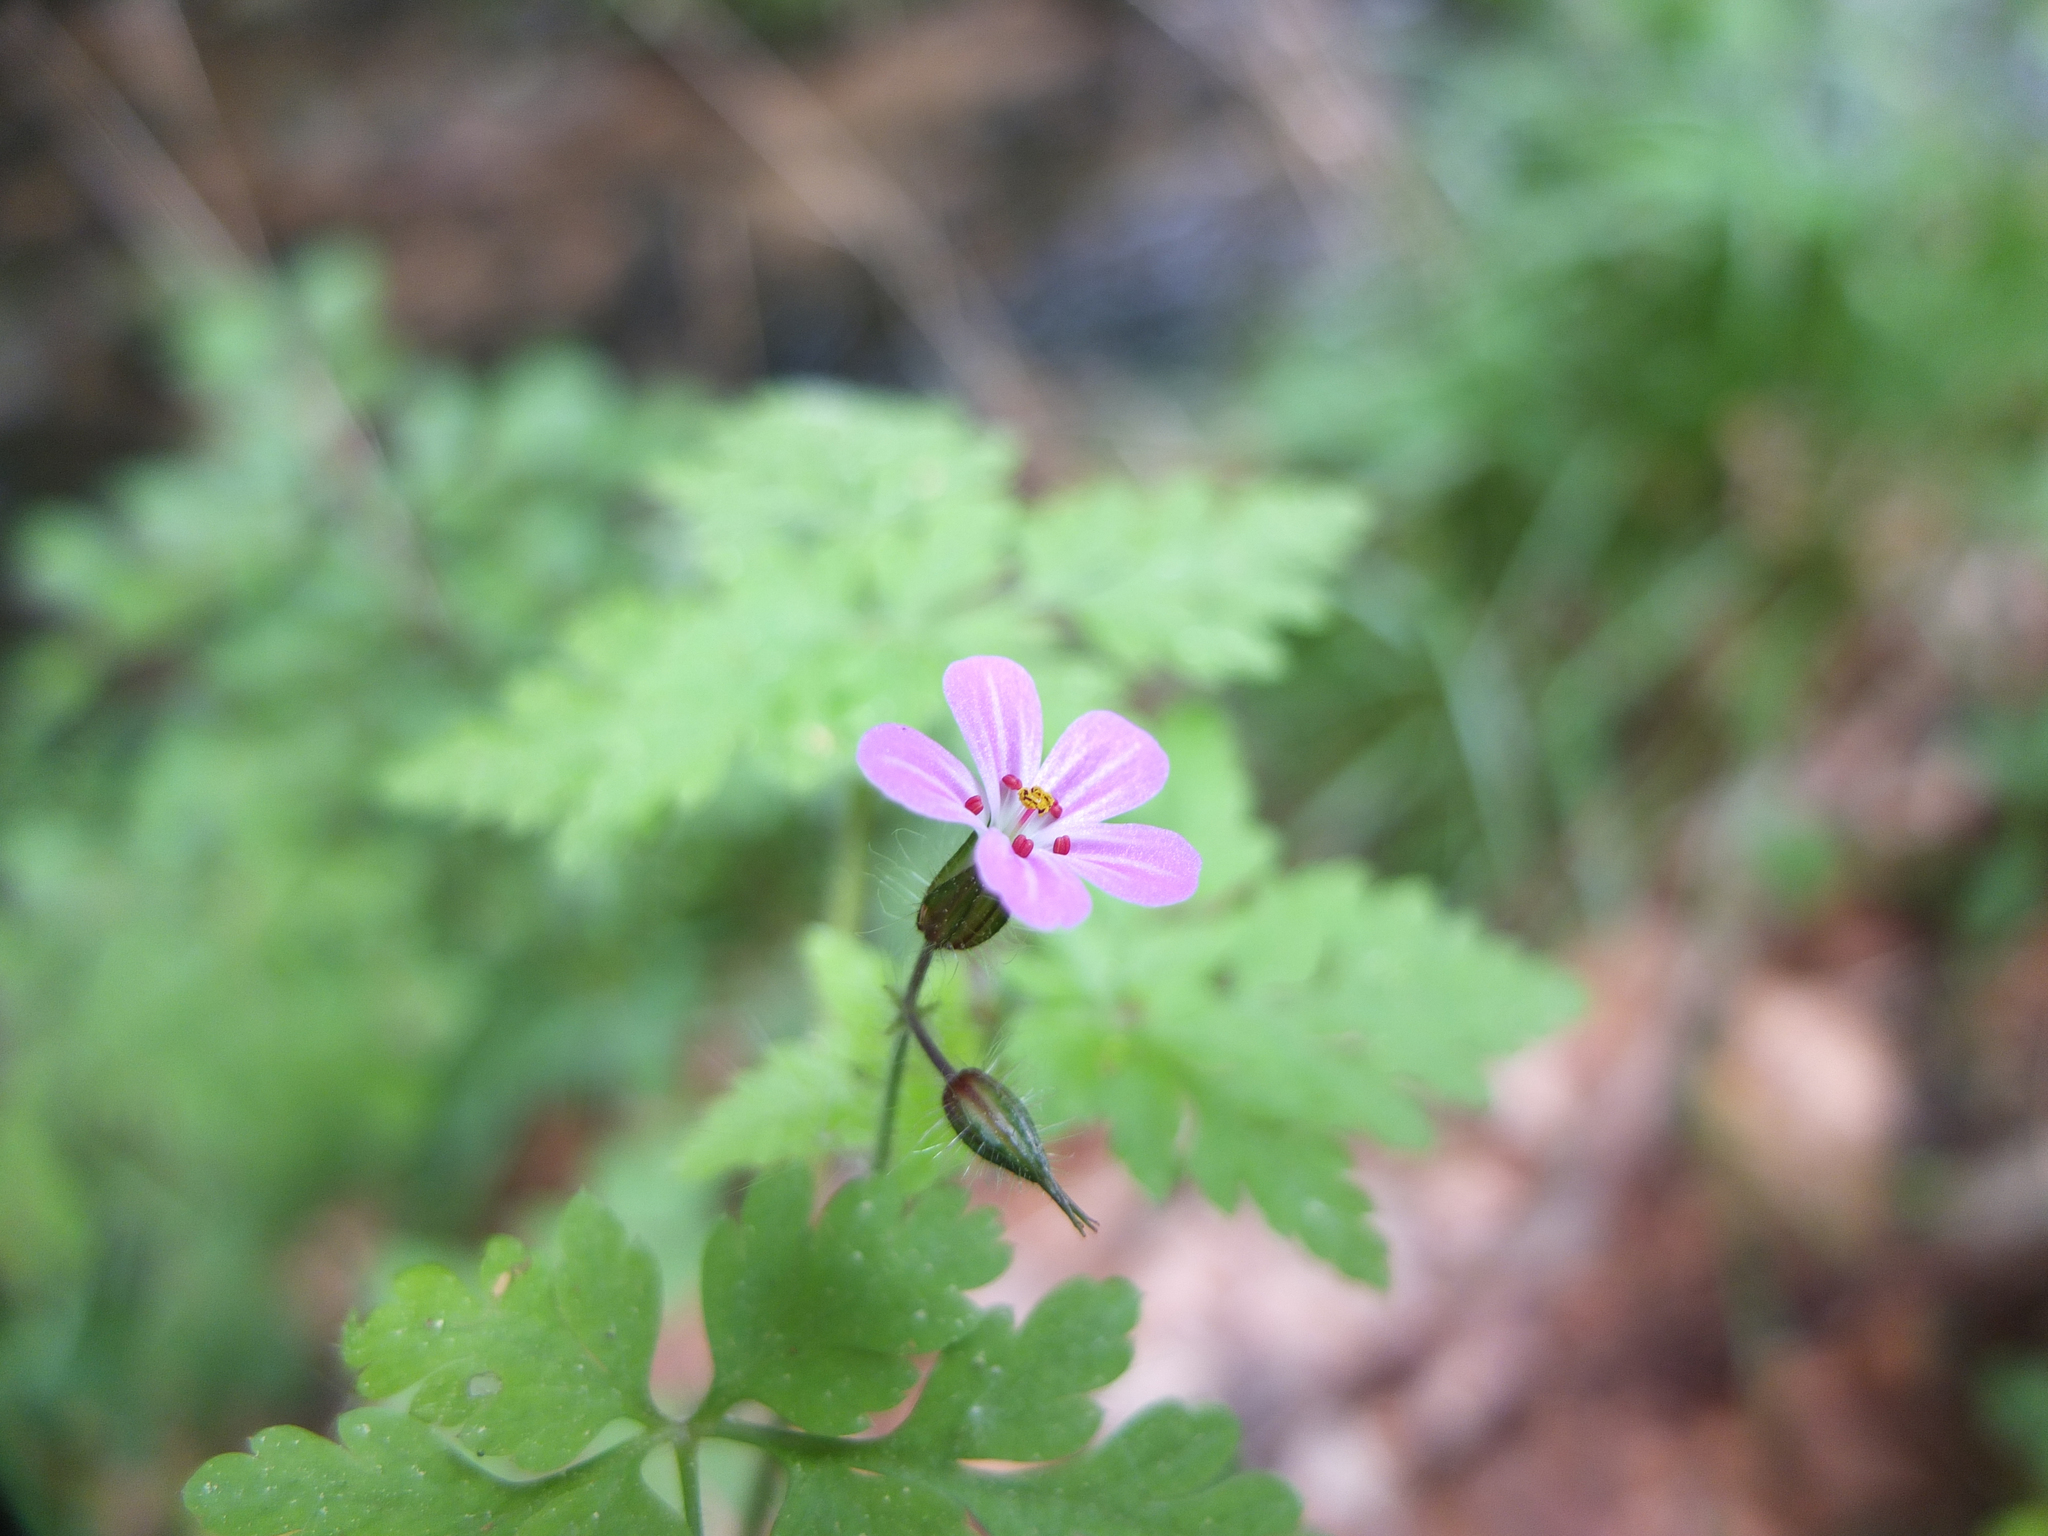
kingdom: Plantae
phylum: Tracheophyta
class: Magnoliopsida
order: Geraniales
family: Geraniaceae
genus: Geranium
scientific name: Geranium robertianum
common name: Herb-robert
